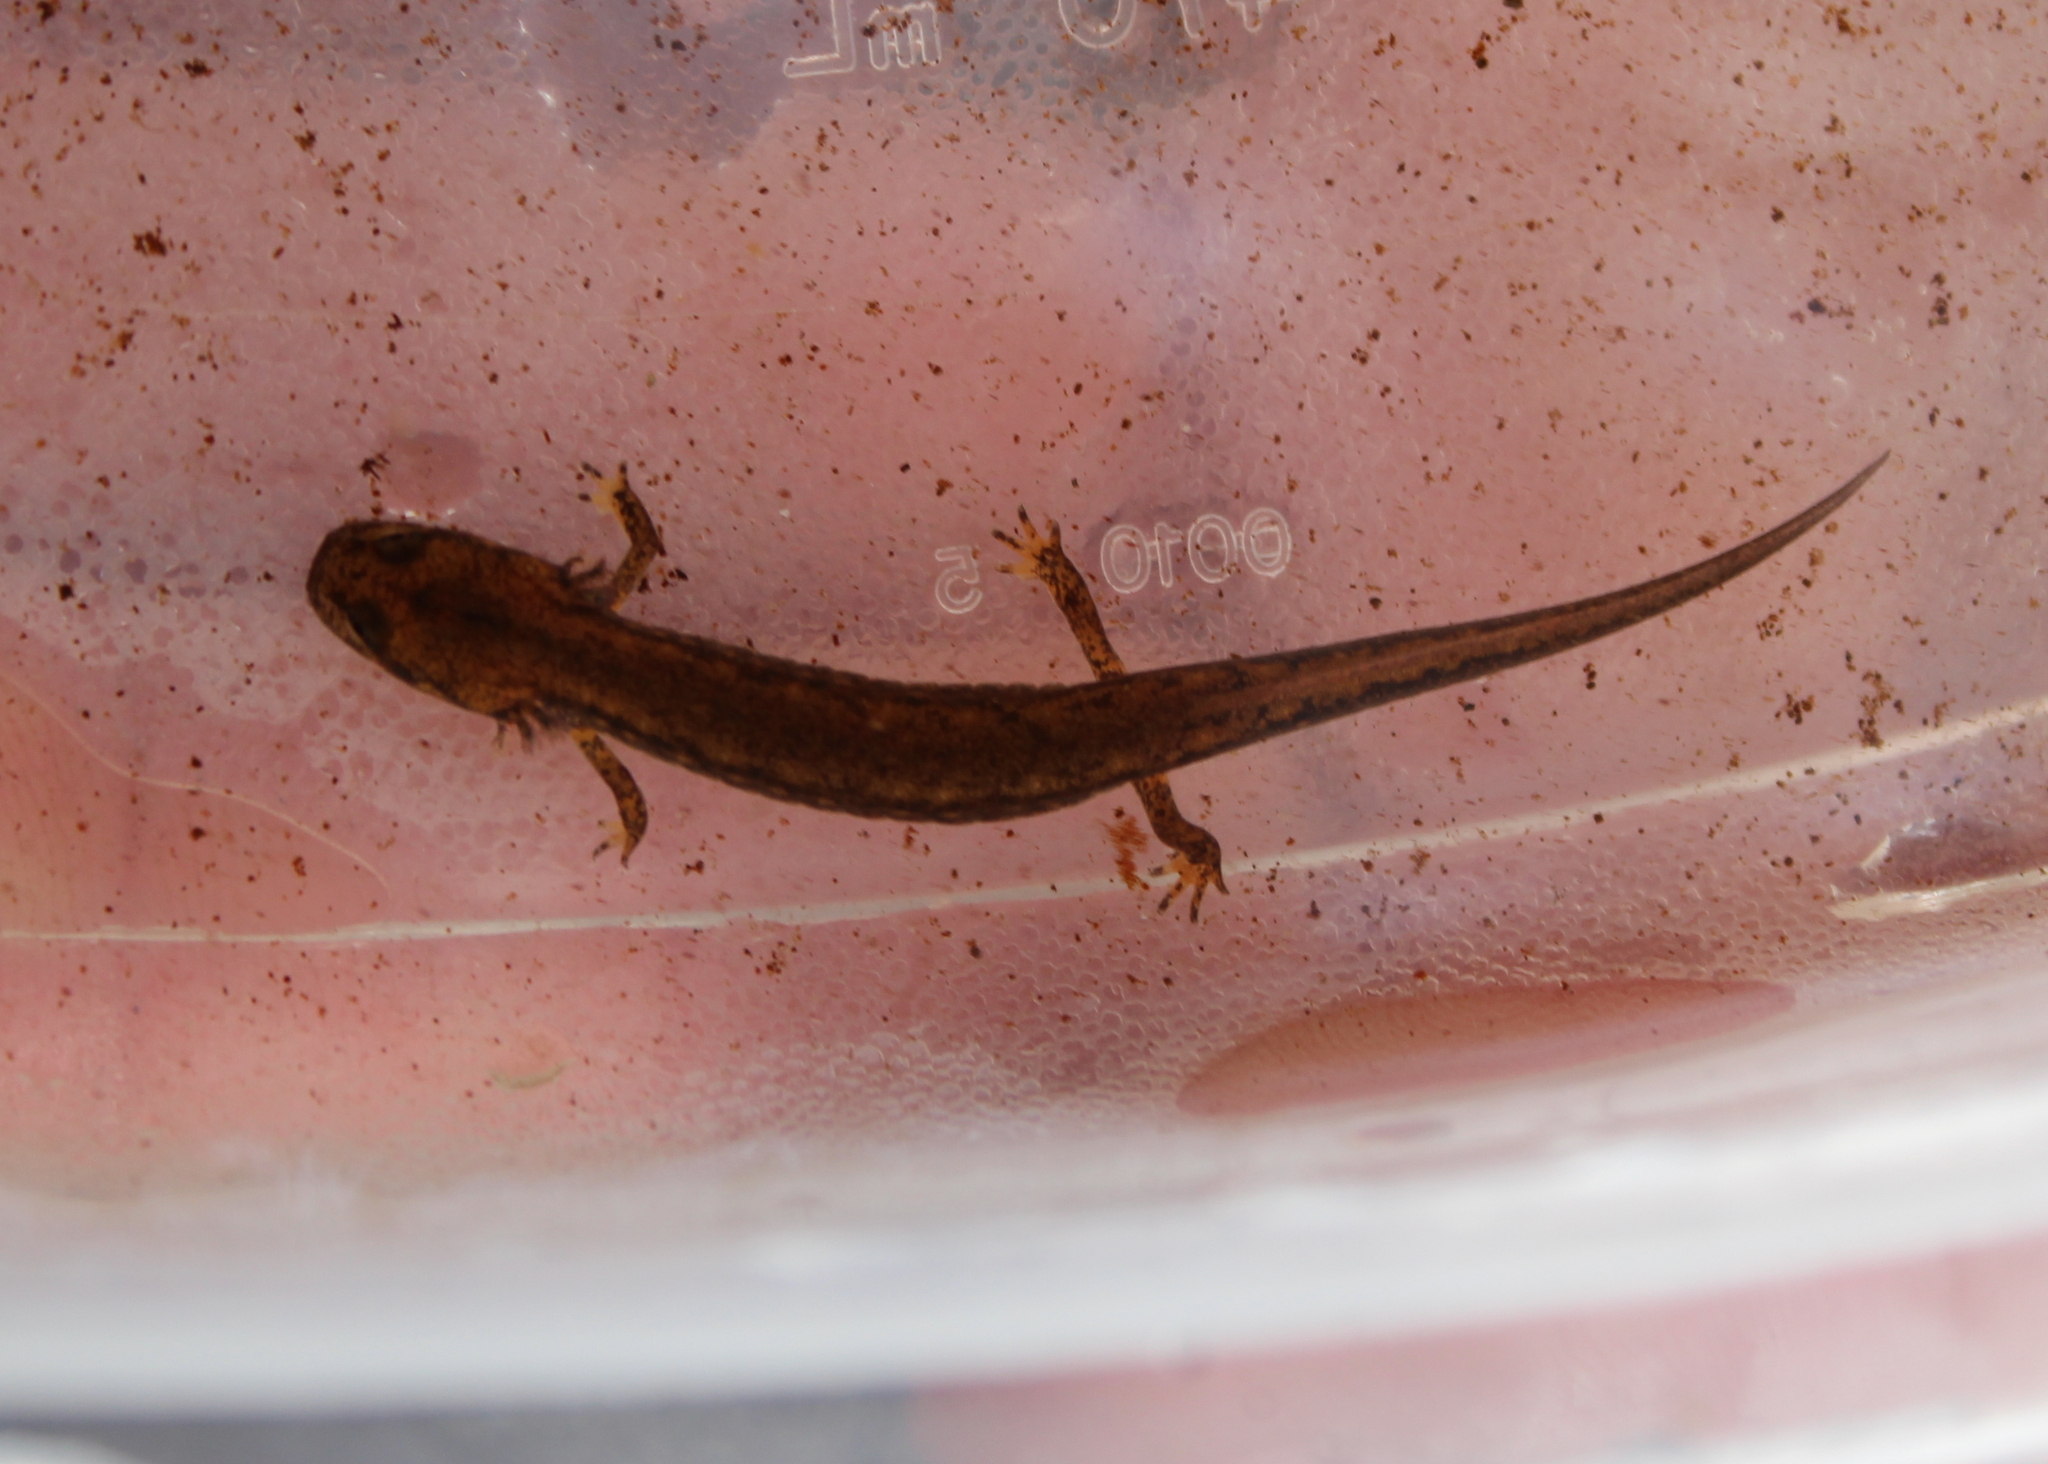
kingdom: Animalia
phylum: Chordata
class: Amphibia
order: Caudata
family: Plethodontidae
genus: Eurycea
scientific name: Eurycea bislineata
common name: Northern two-lined salamander
